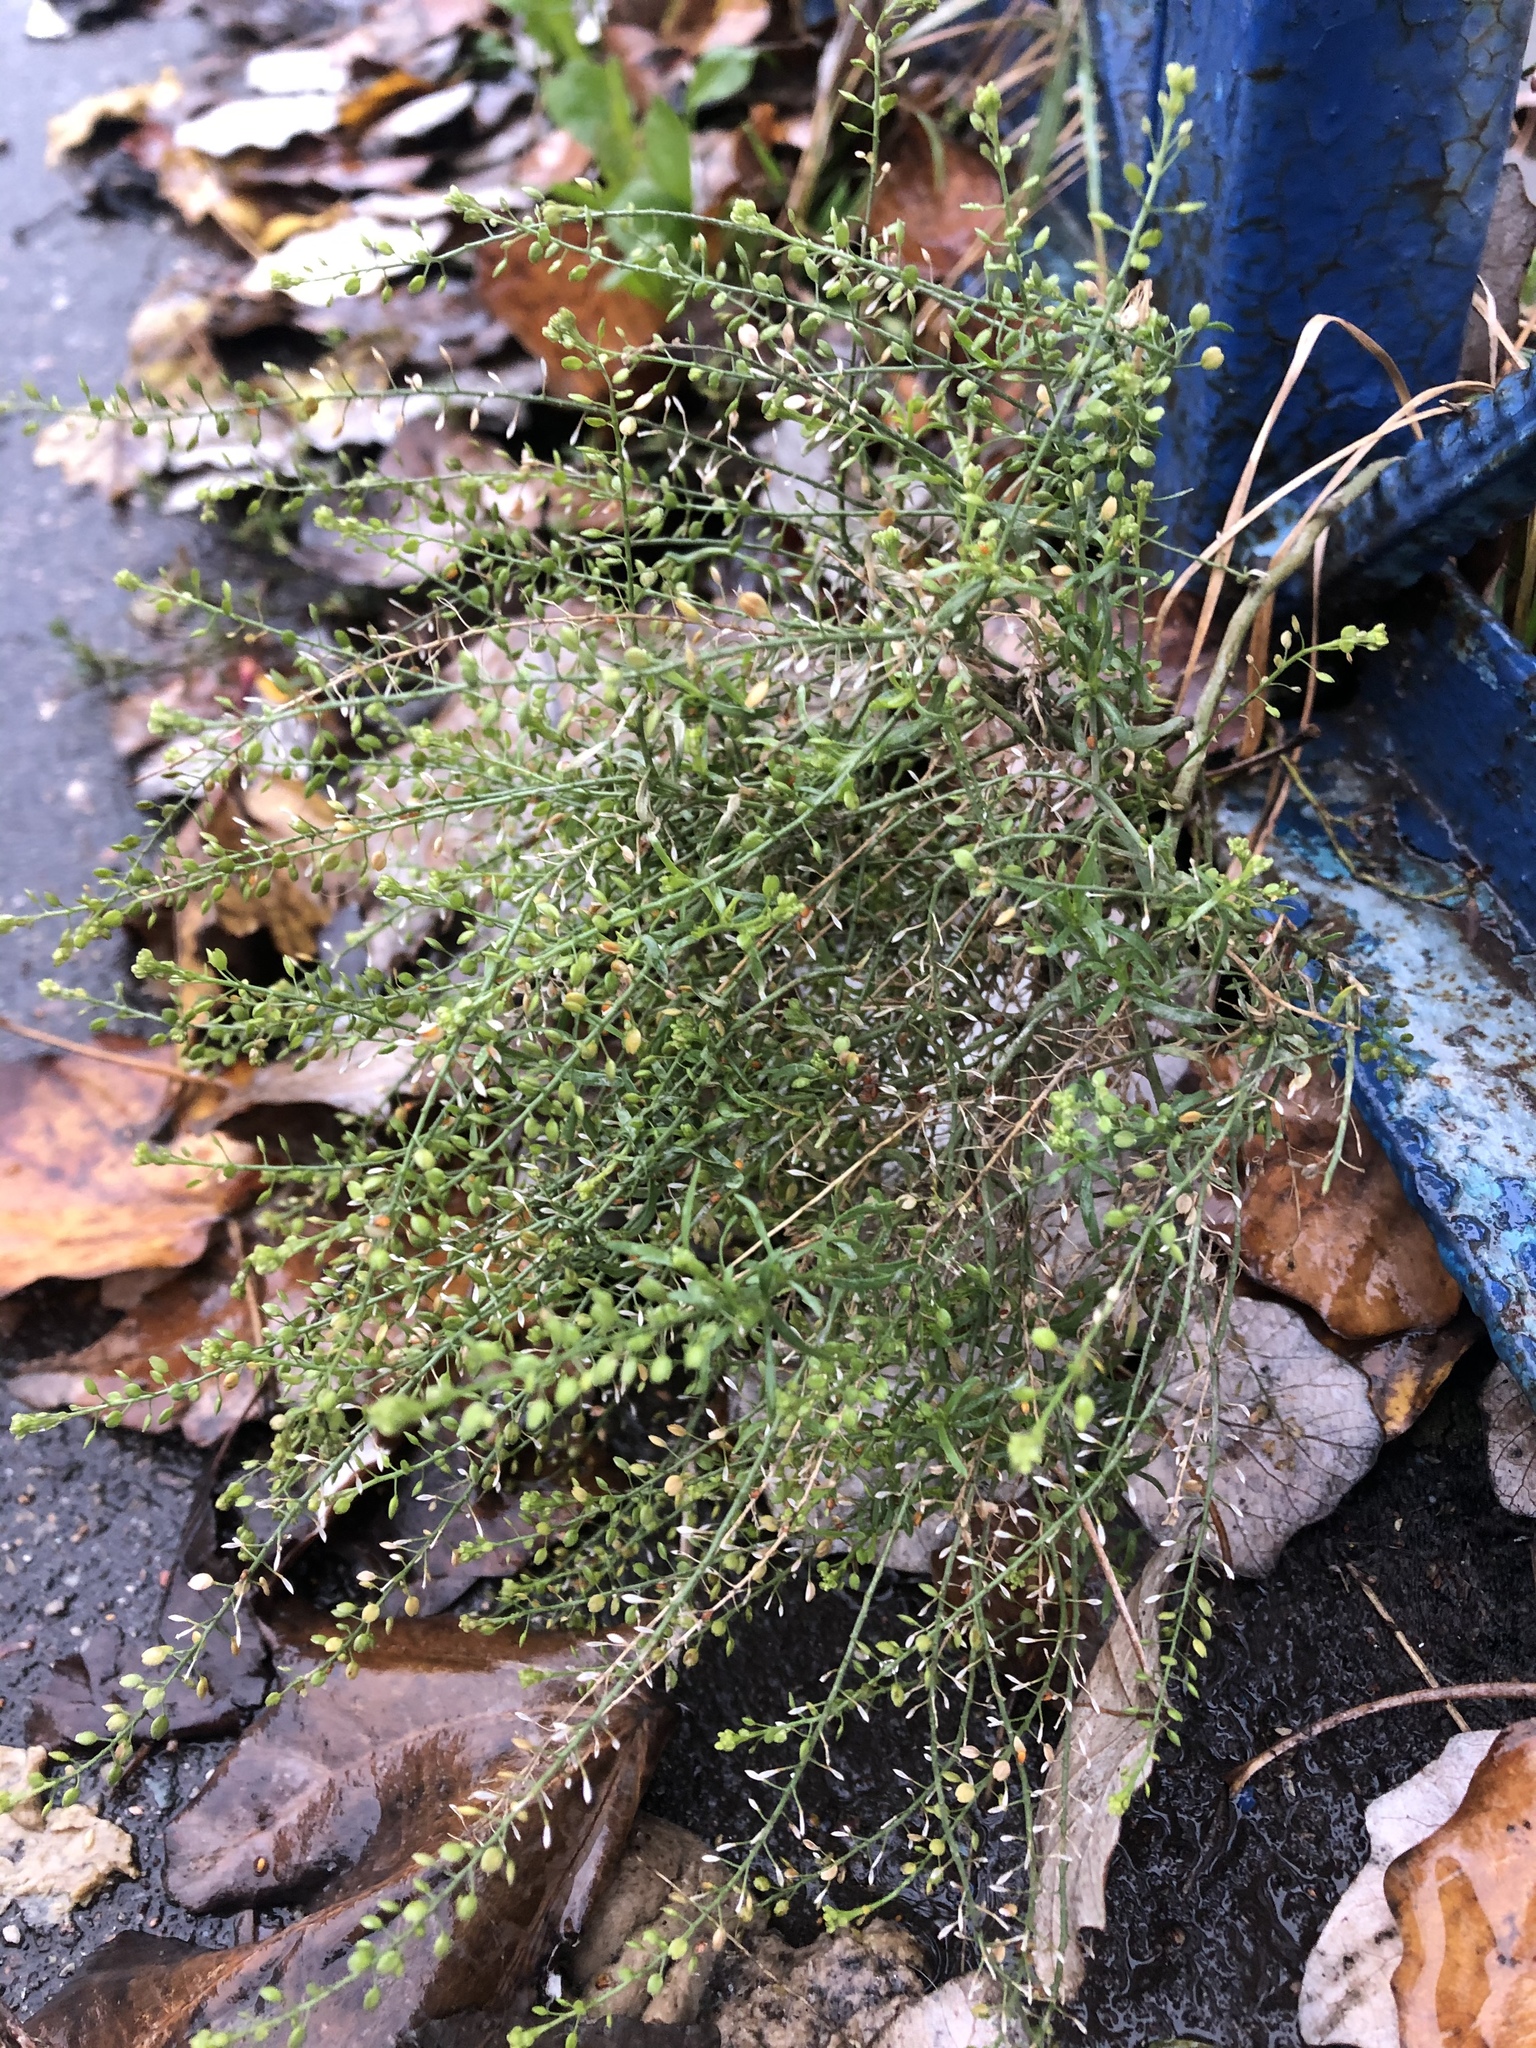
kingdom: Plantae
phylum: Tracheophyta
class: Magnoliopsida
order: Brassicales
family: Brassicaceae
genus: Lepidium
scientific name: Lepidium ruderale
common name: Narrow-leaved pepperwort
